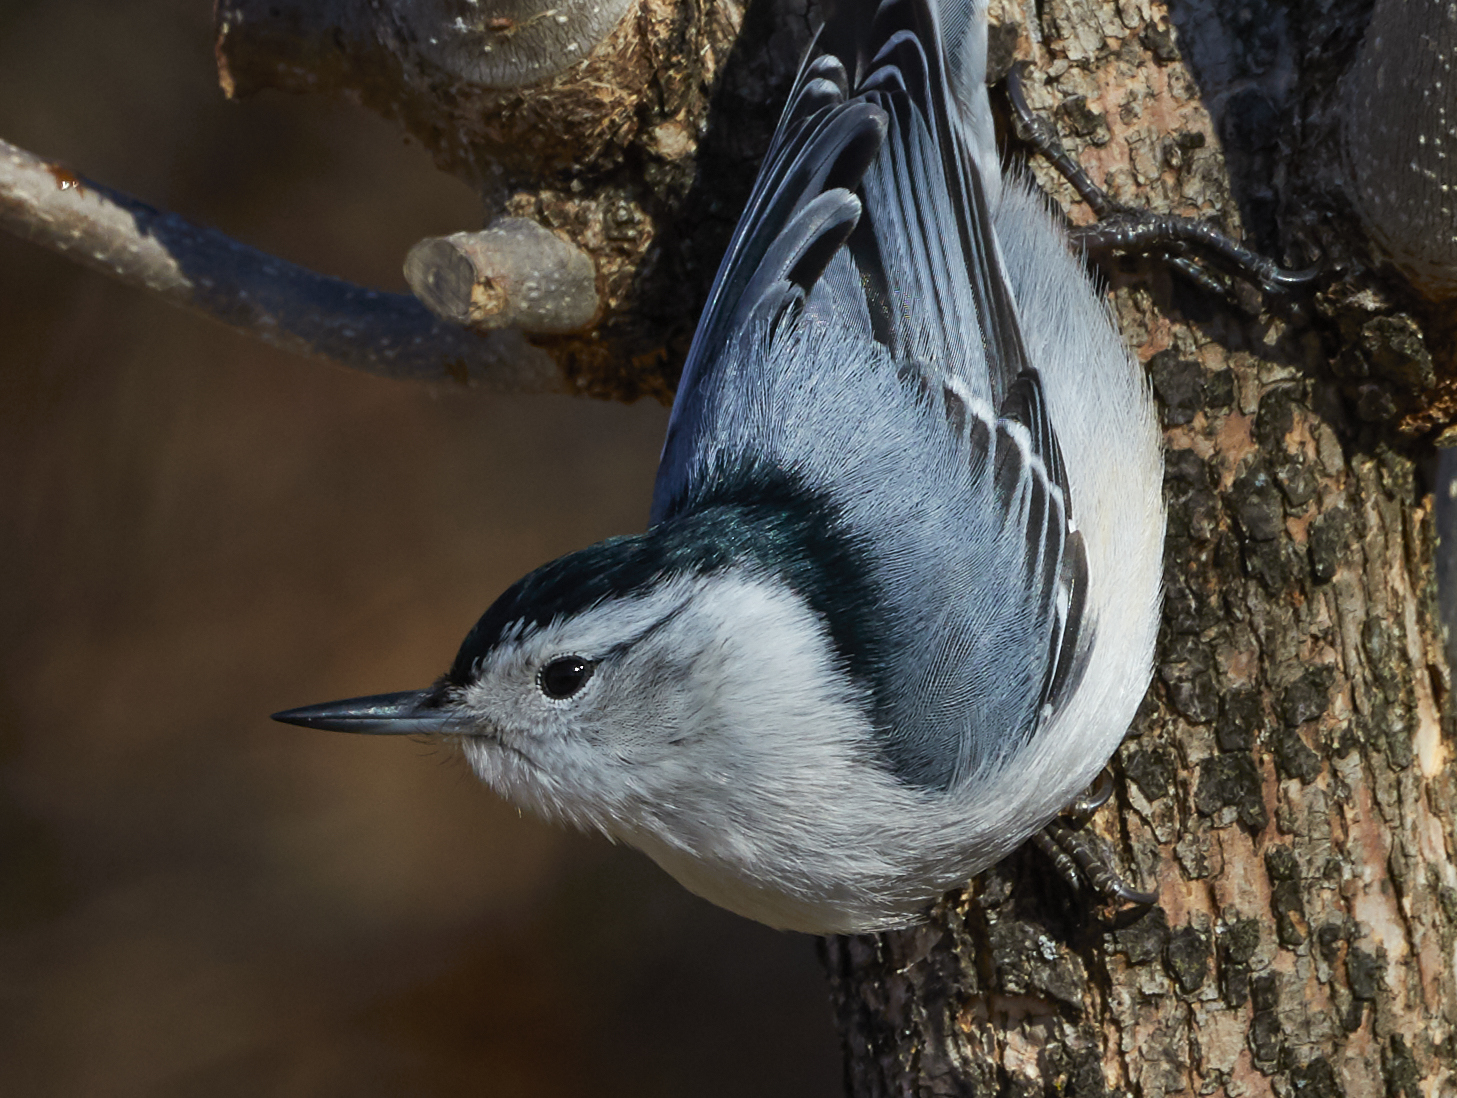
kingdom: Animalia
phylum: Chordata
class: Aves
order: Passeriformes
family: Sittidae
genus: Sitta
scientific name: Sitta carolinensis
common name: White-breasted nuthatch
